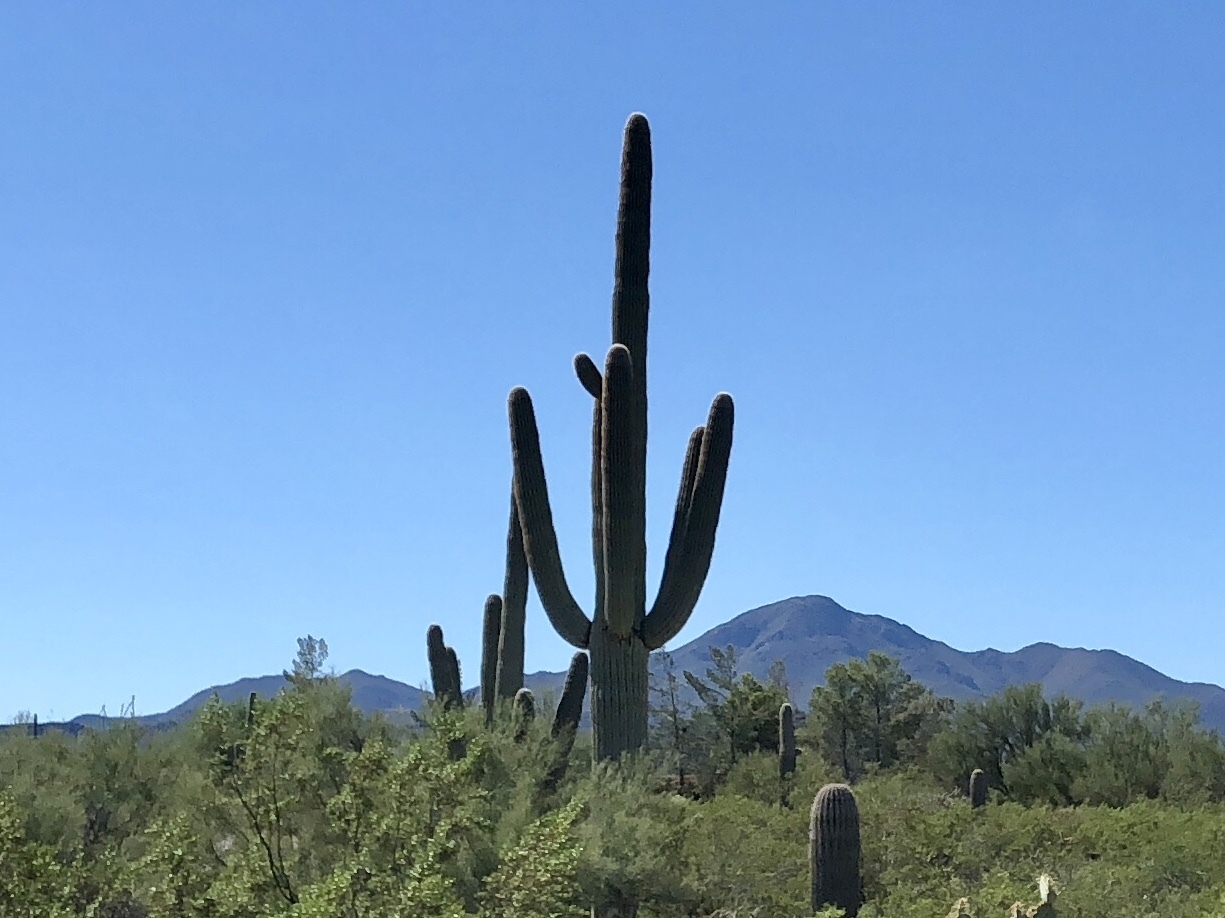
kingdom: Plantae
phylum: Tracheophyta
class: Magnoliopsida
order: Caryophyllales
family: Cactaceae
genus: Carnegiea
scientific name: Carnegiea gigantea
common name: Saguaro
